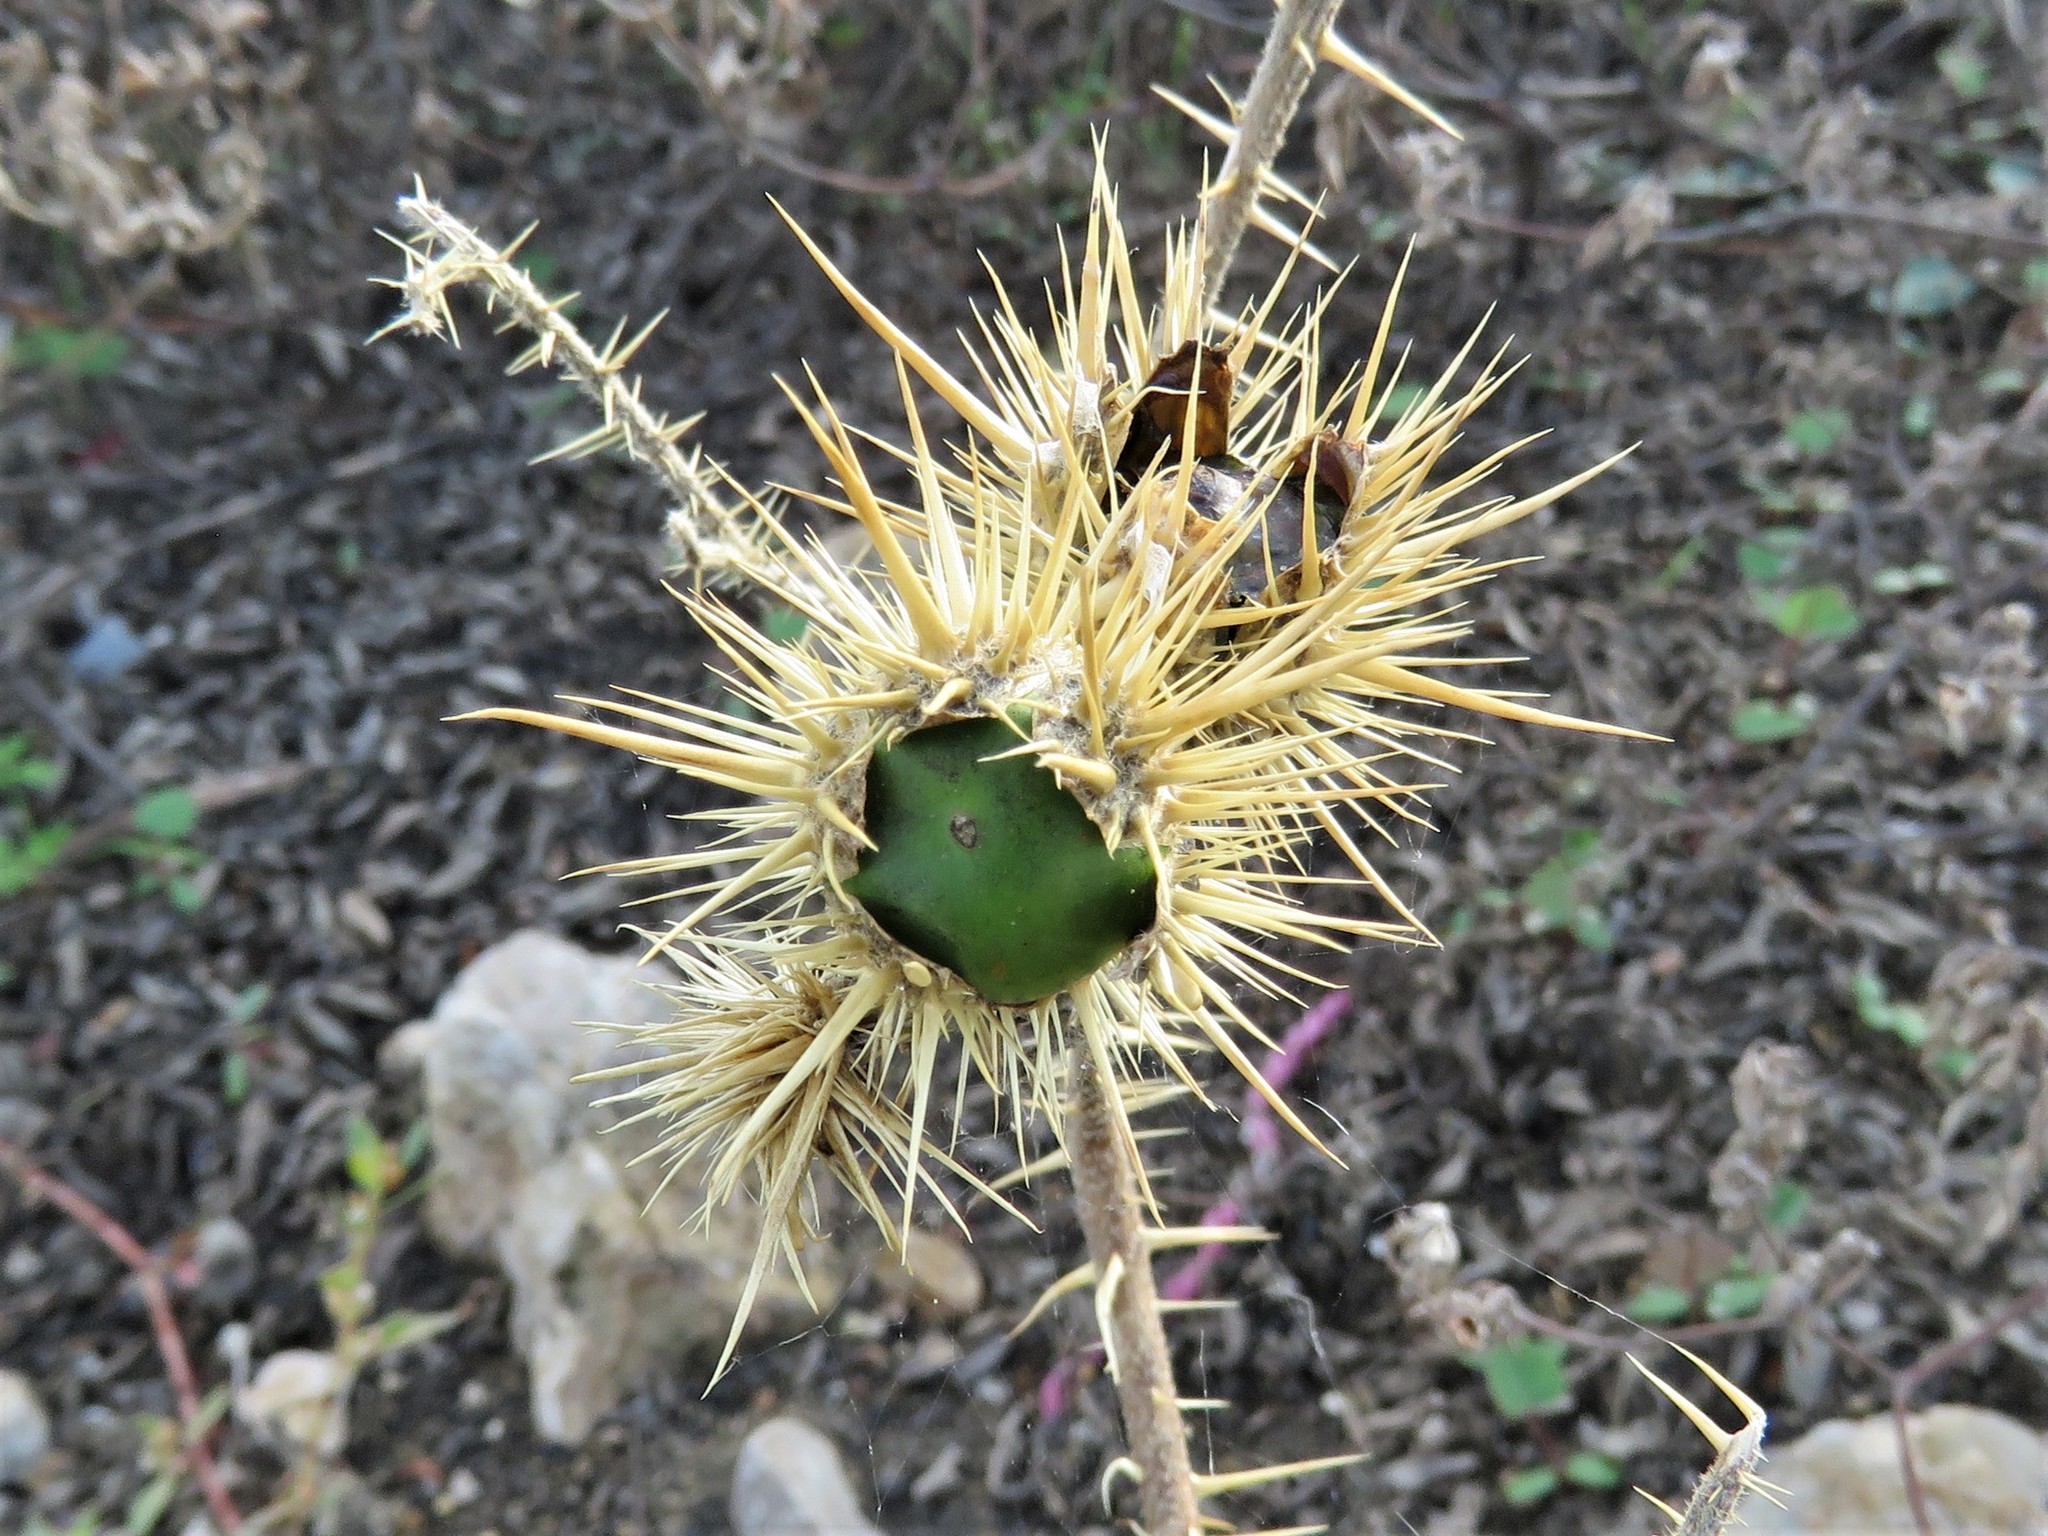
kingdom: Plantae
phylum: Tracheophyta
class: Magnoliopsida
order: Solanales
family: Solanaceae
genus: Solanum
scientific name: Solanum angustifolium
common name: Buffalobur nightshade
